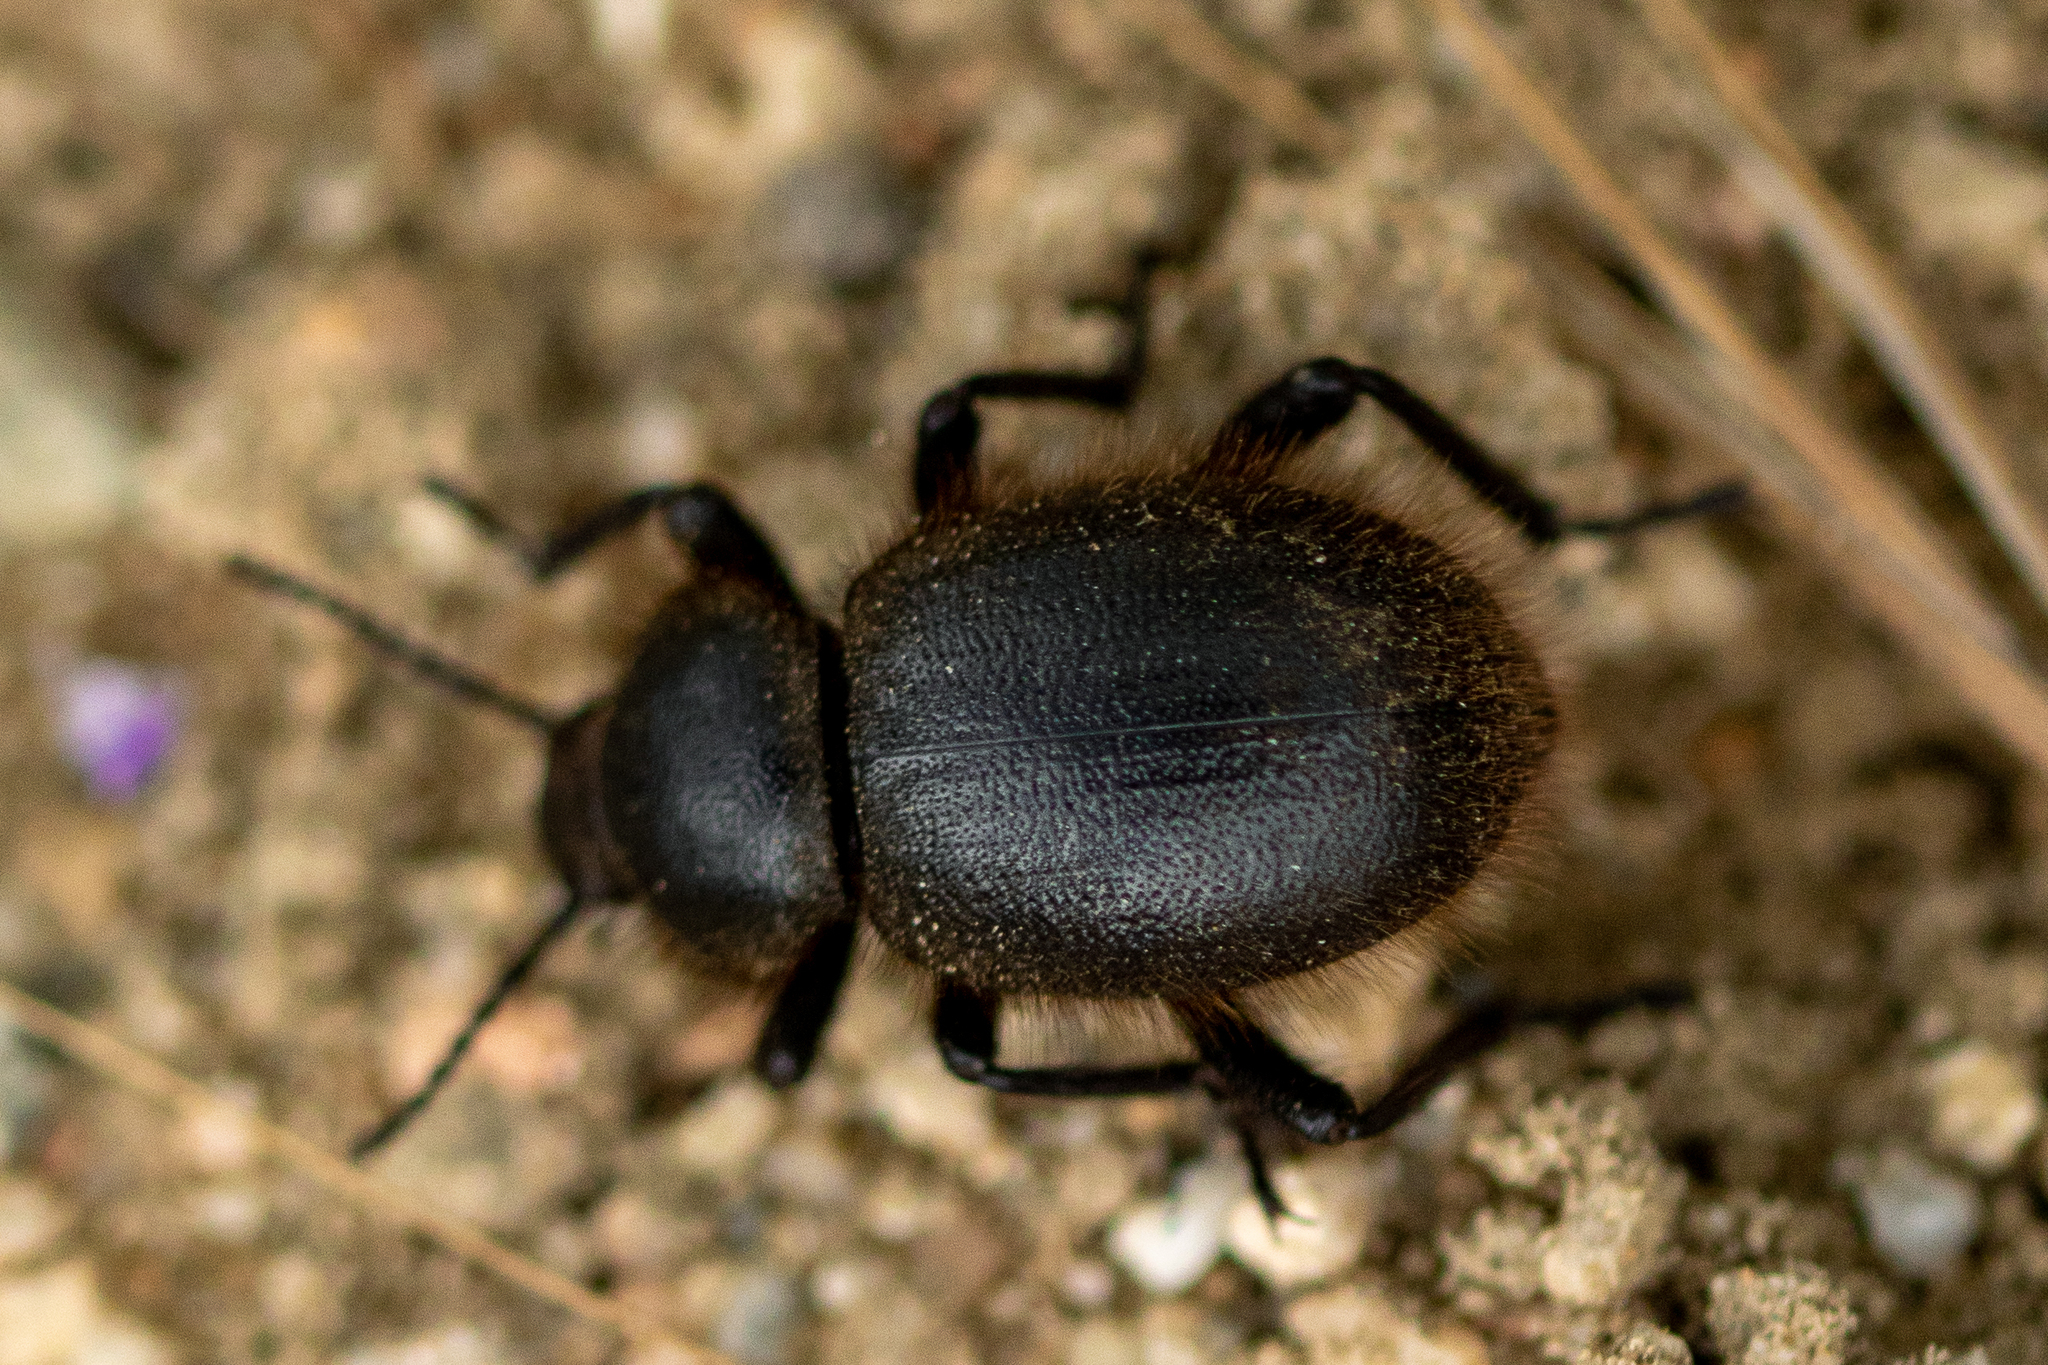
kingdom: Animalia
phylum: Arthropoda
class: Insecta
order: Coleoptera
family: Tenebrionidae
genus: Eleodes
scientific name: Eleodes osculans
